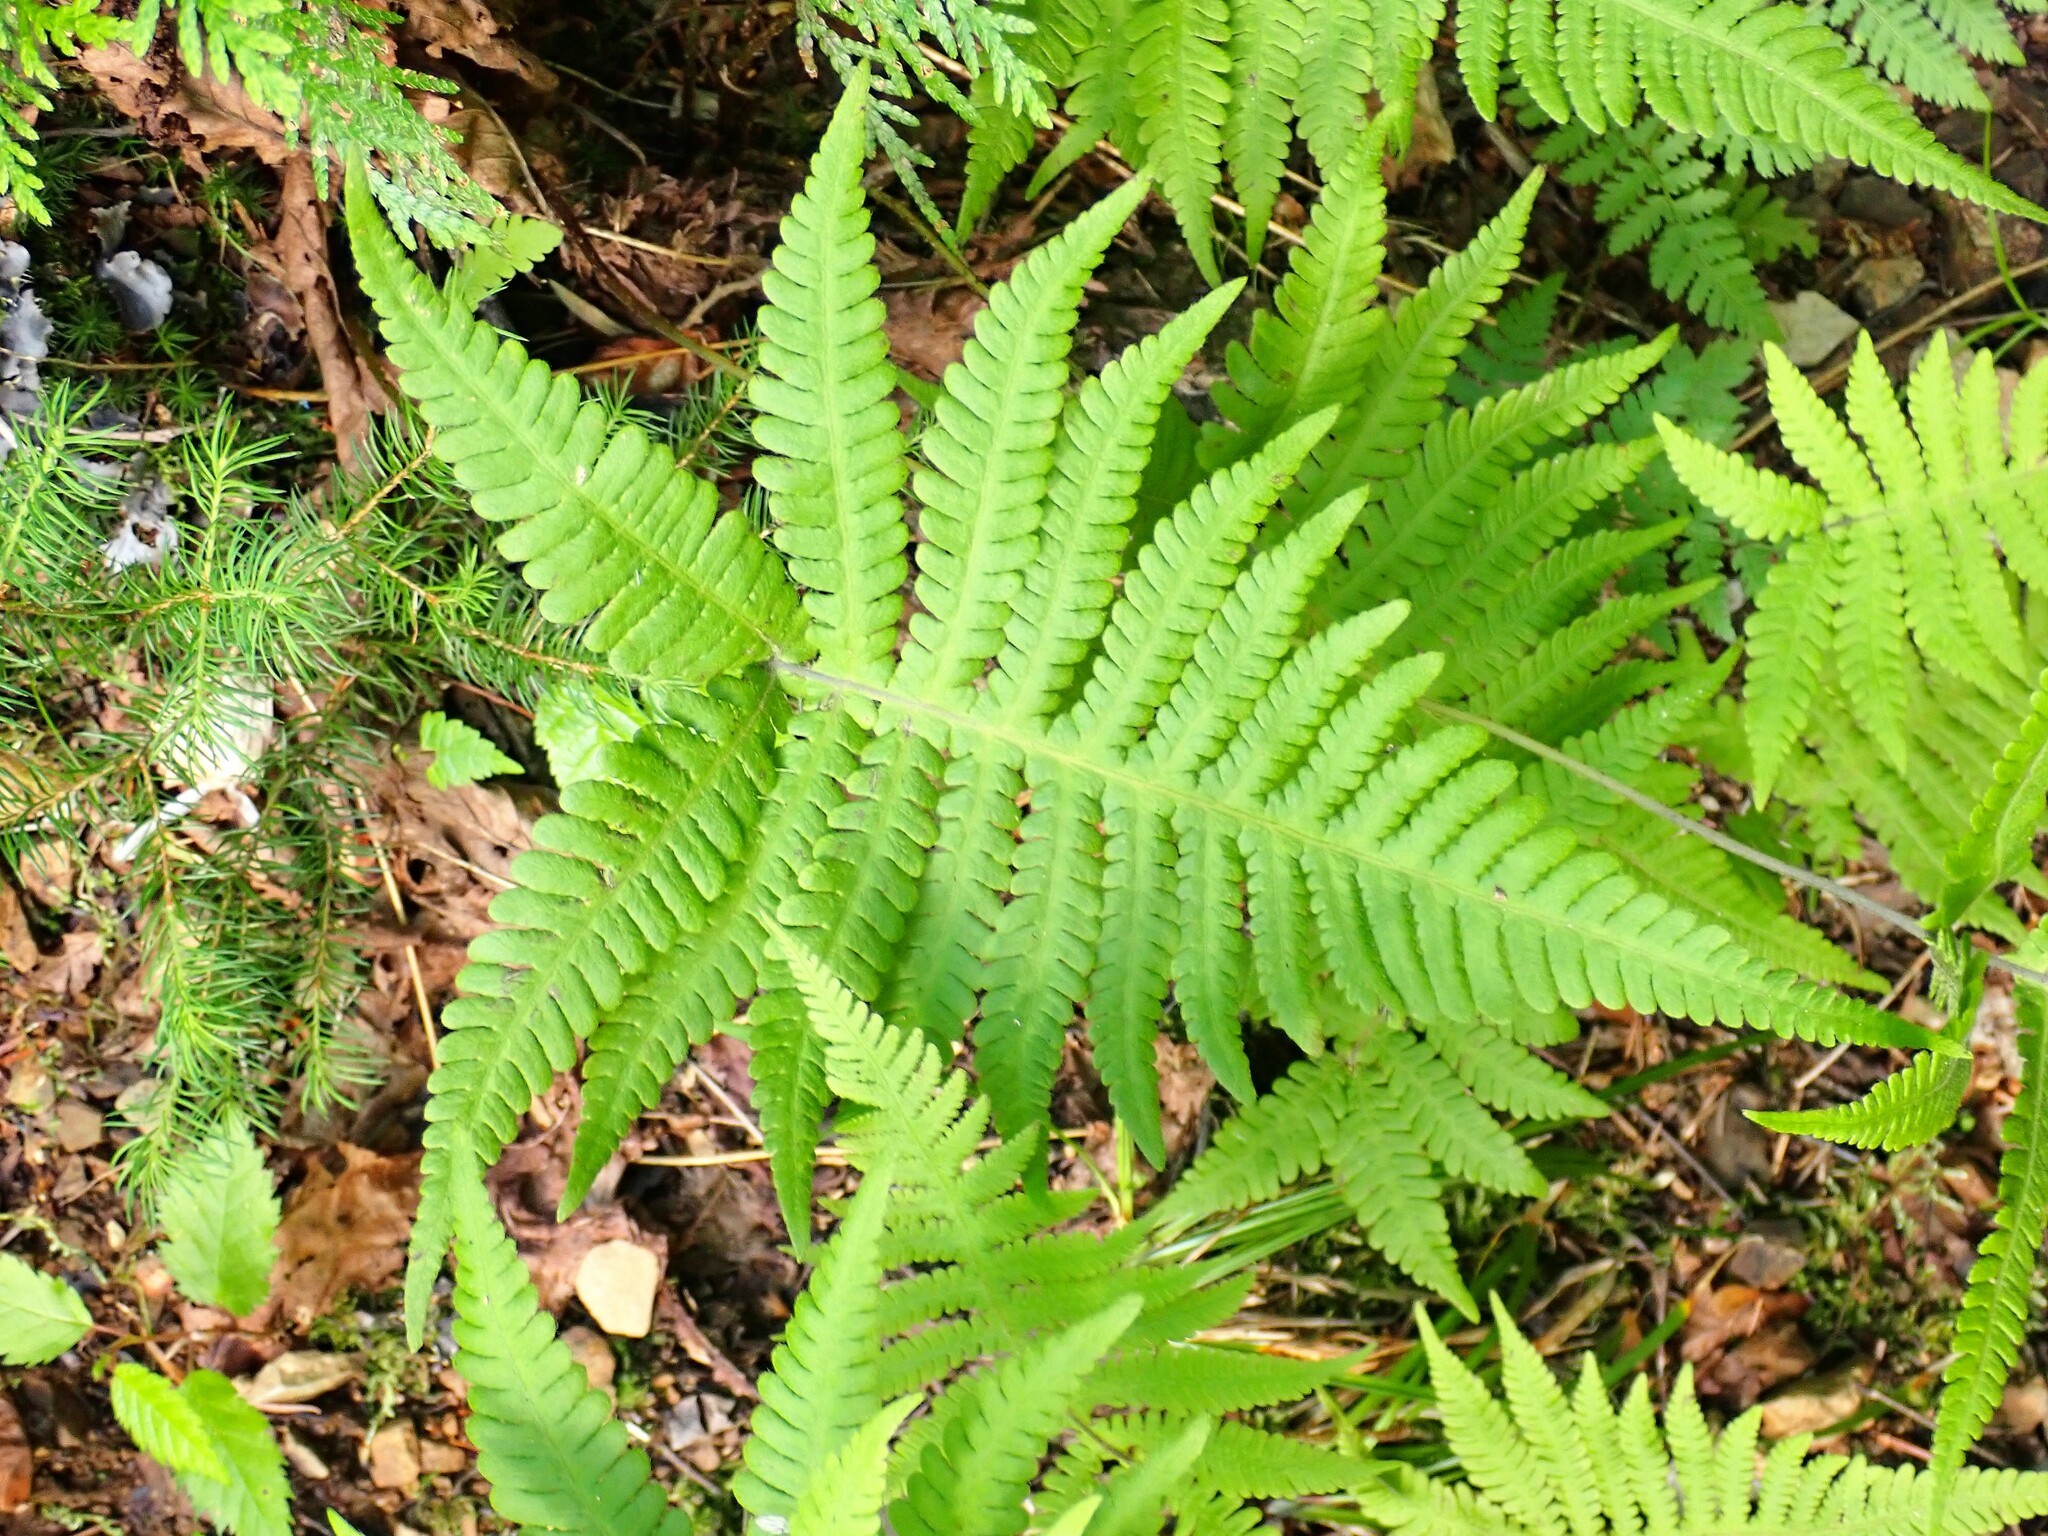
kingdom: Plantae
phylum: Tracheophyta
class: Polypodiopsida
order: Polypodiales
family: Thelypteridaceae
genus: Phegopteris
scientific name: Phegopteris connectilis
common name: Beech fern
